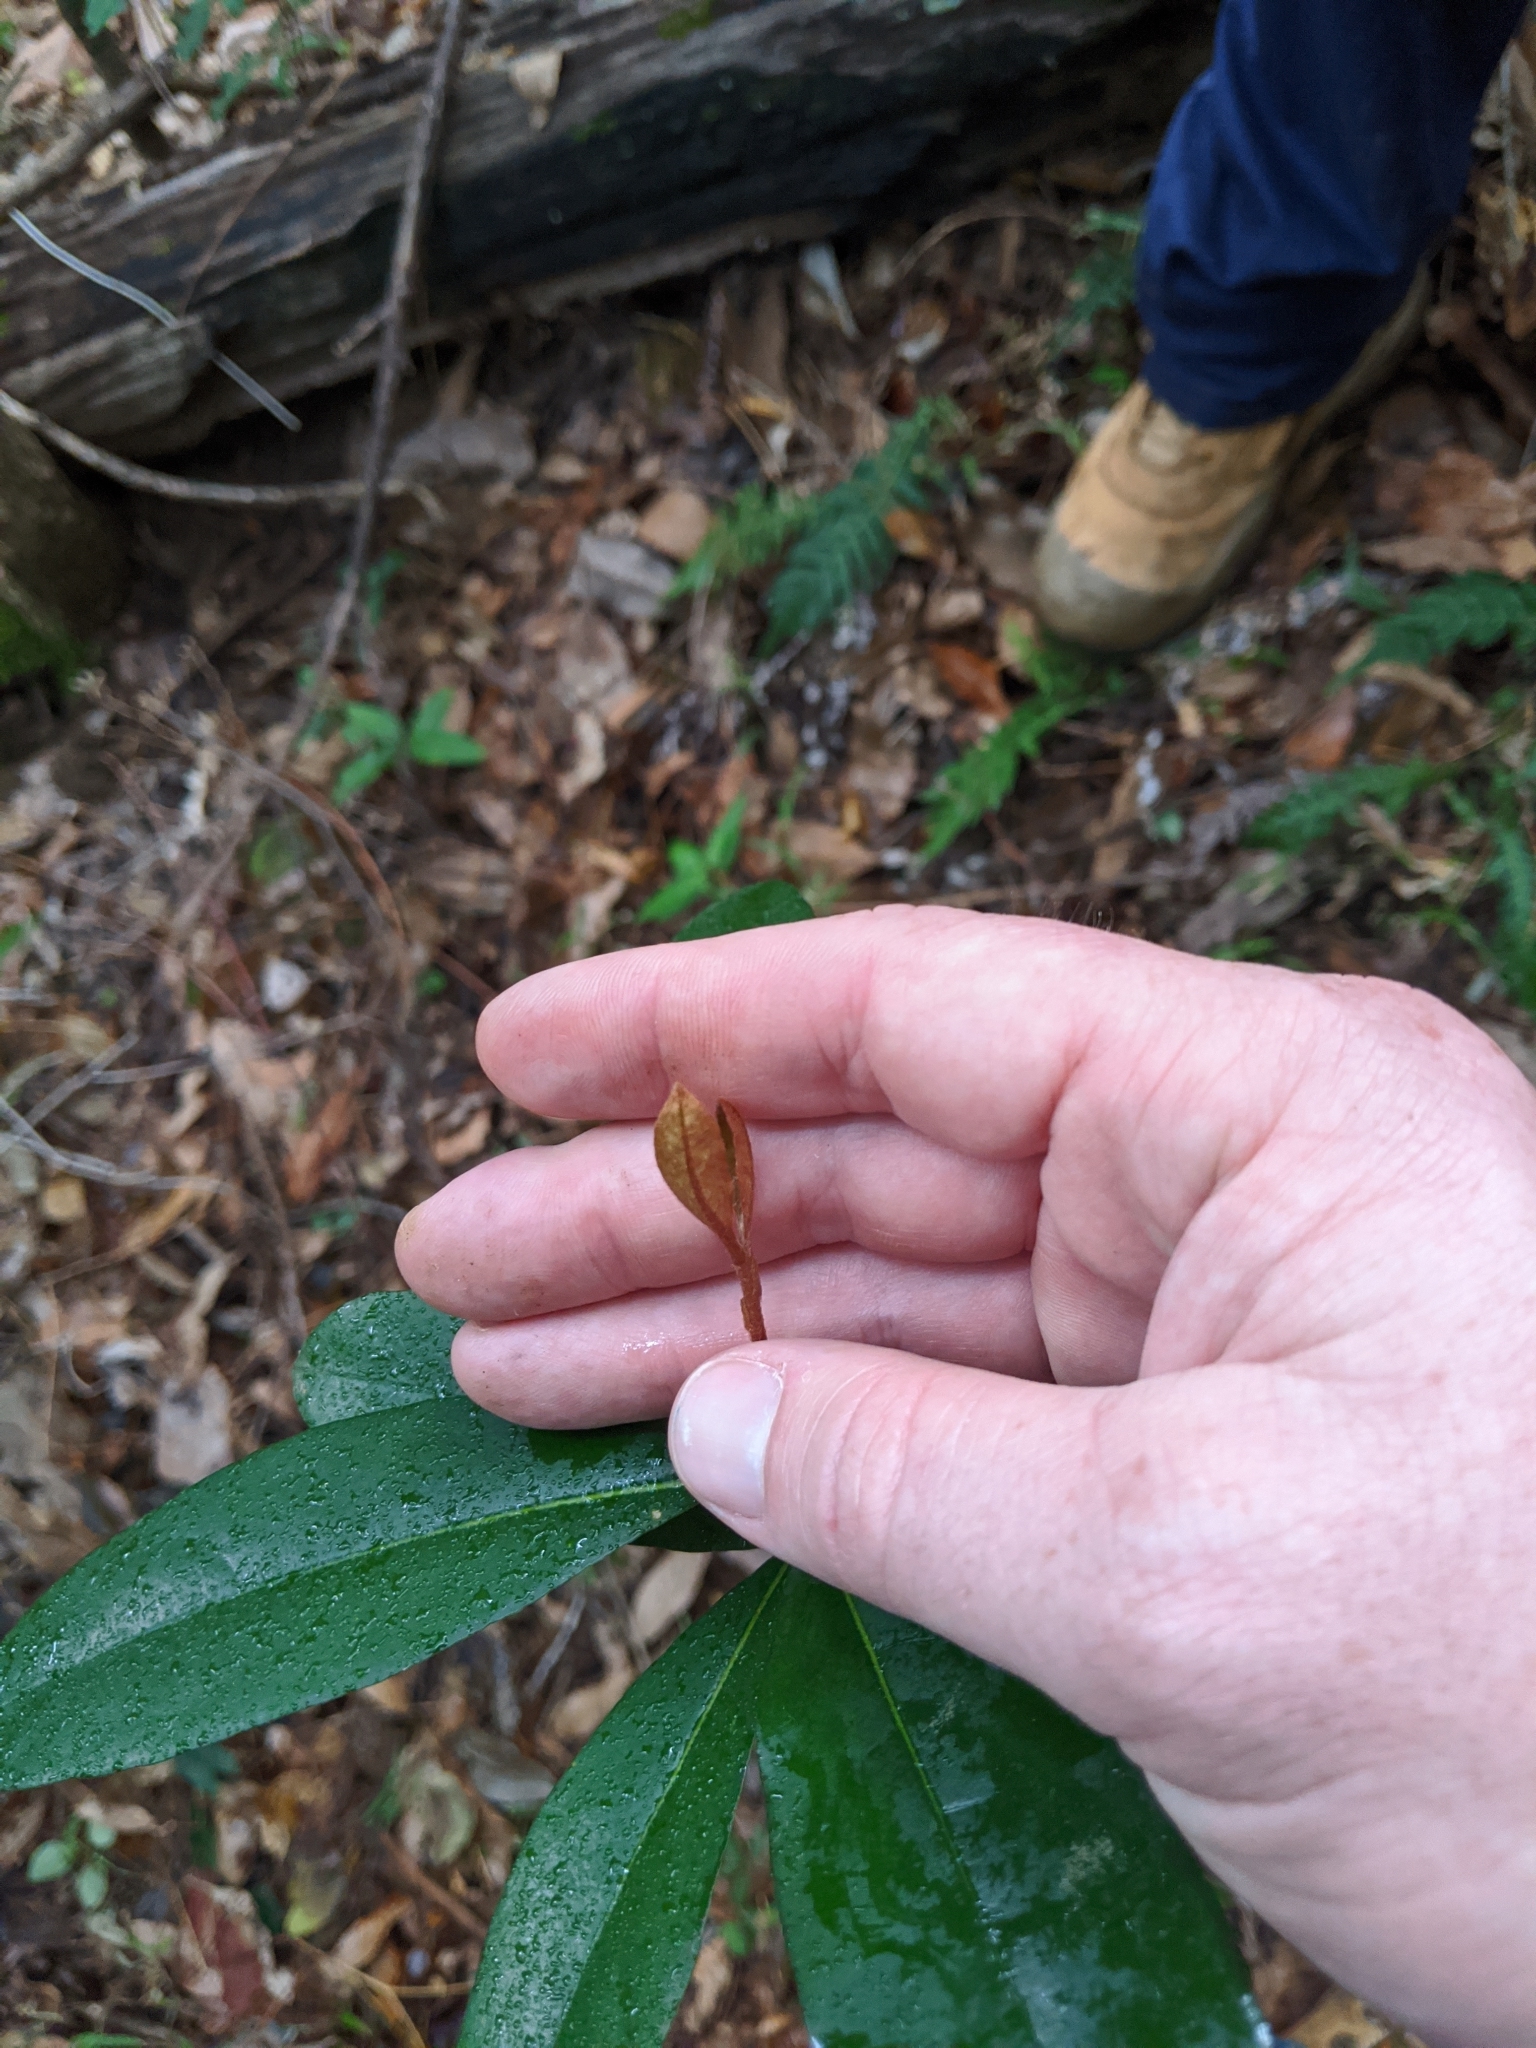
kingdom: Plantae
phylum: Tracheophyta
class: Magnoliopsida
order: Apiales
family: Pittosporaceae
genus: Pittosporum
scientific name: Pittosporum revolutum
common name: Brisbane-laurel
